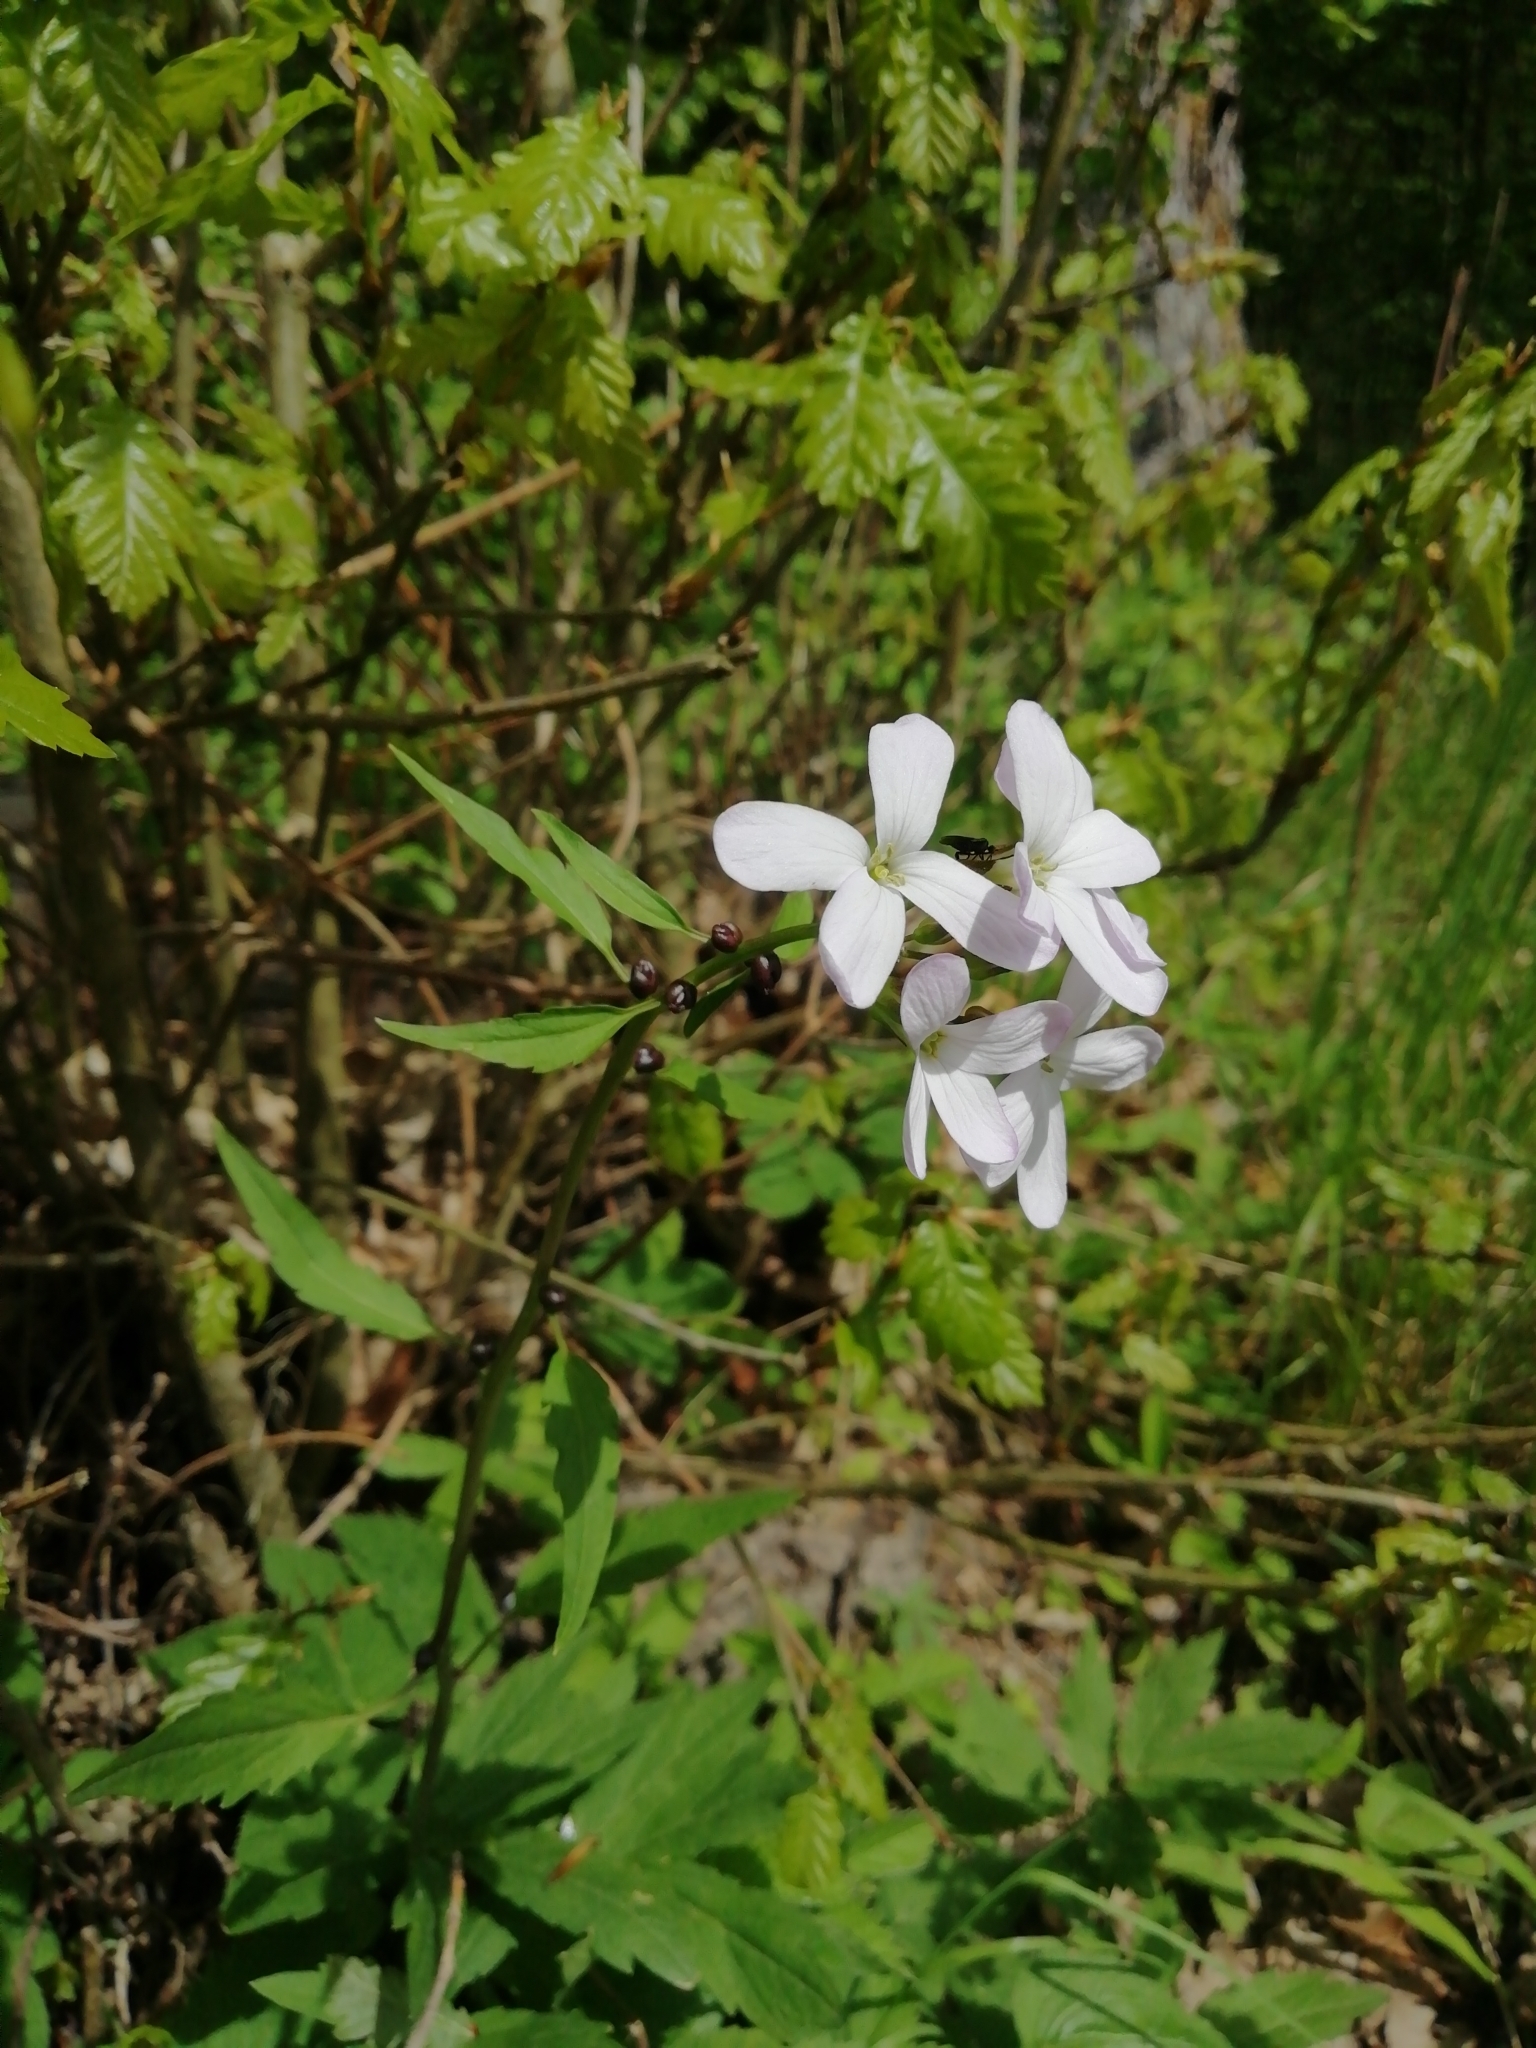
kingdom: Plantae
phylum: Tracheophyta
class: Magnoliopsida
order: Brassicales
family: Brassicaceae
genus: Cardamine
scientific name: Cardamine bulbifera
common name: Coralroot bittercress
